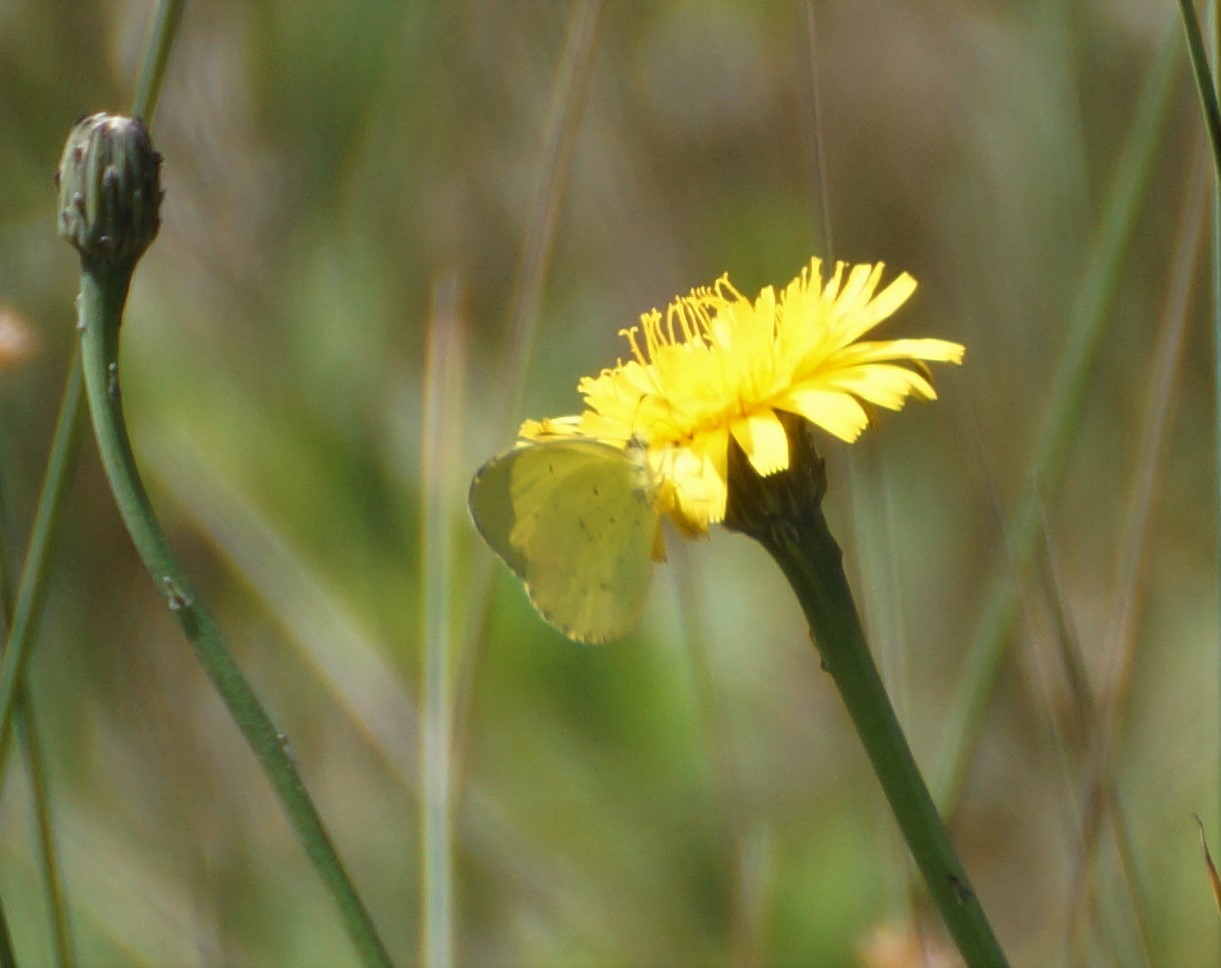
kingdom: Animalia
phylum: Arthropoda
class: Insecta
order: Lepidoptera
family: Pieridae
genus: Eurema
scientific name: Eurema smilax
